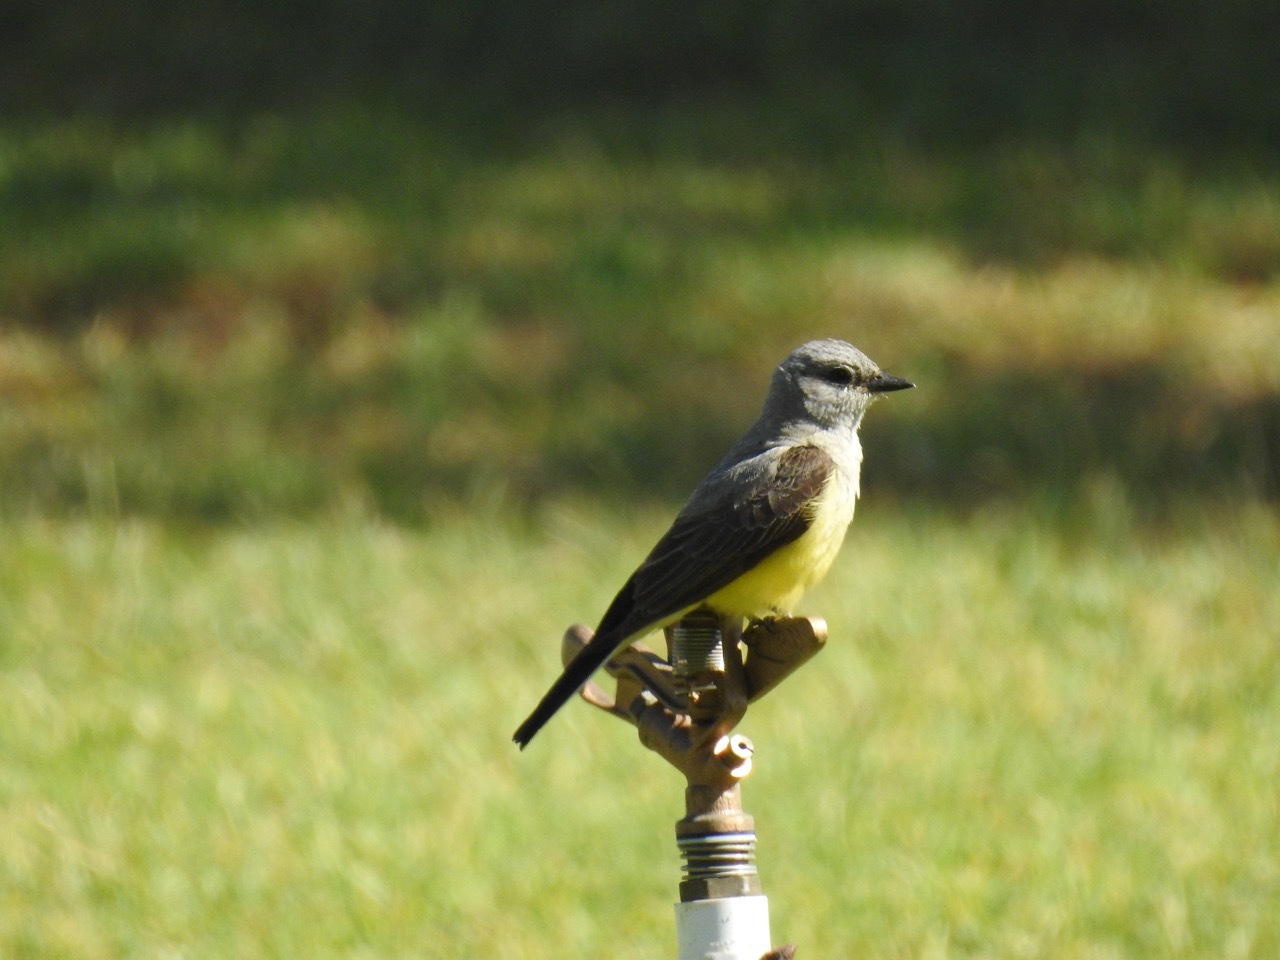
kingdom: Animalia
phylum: Chordata
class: Aves
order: Passeriformes
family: Tyrannidae
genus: Tyrannus
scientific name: Tyrannus verticalis
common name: Western kingbird
